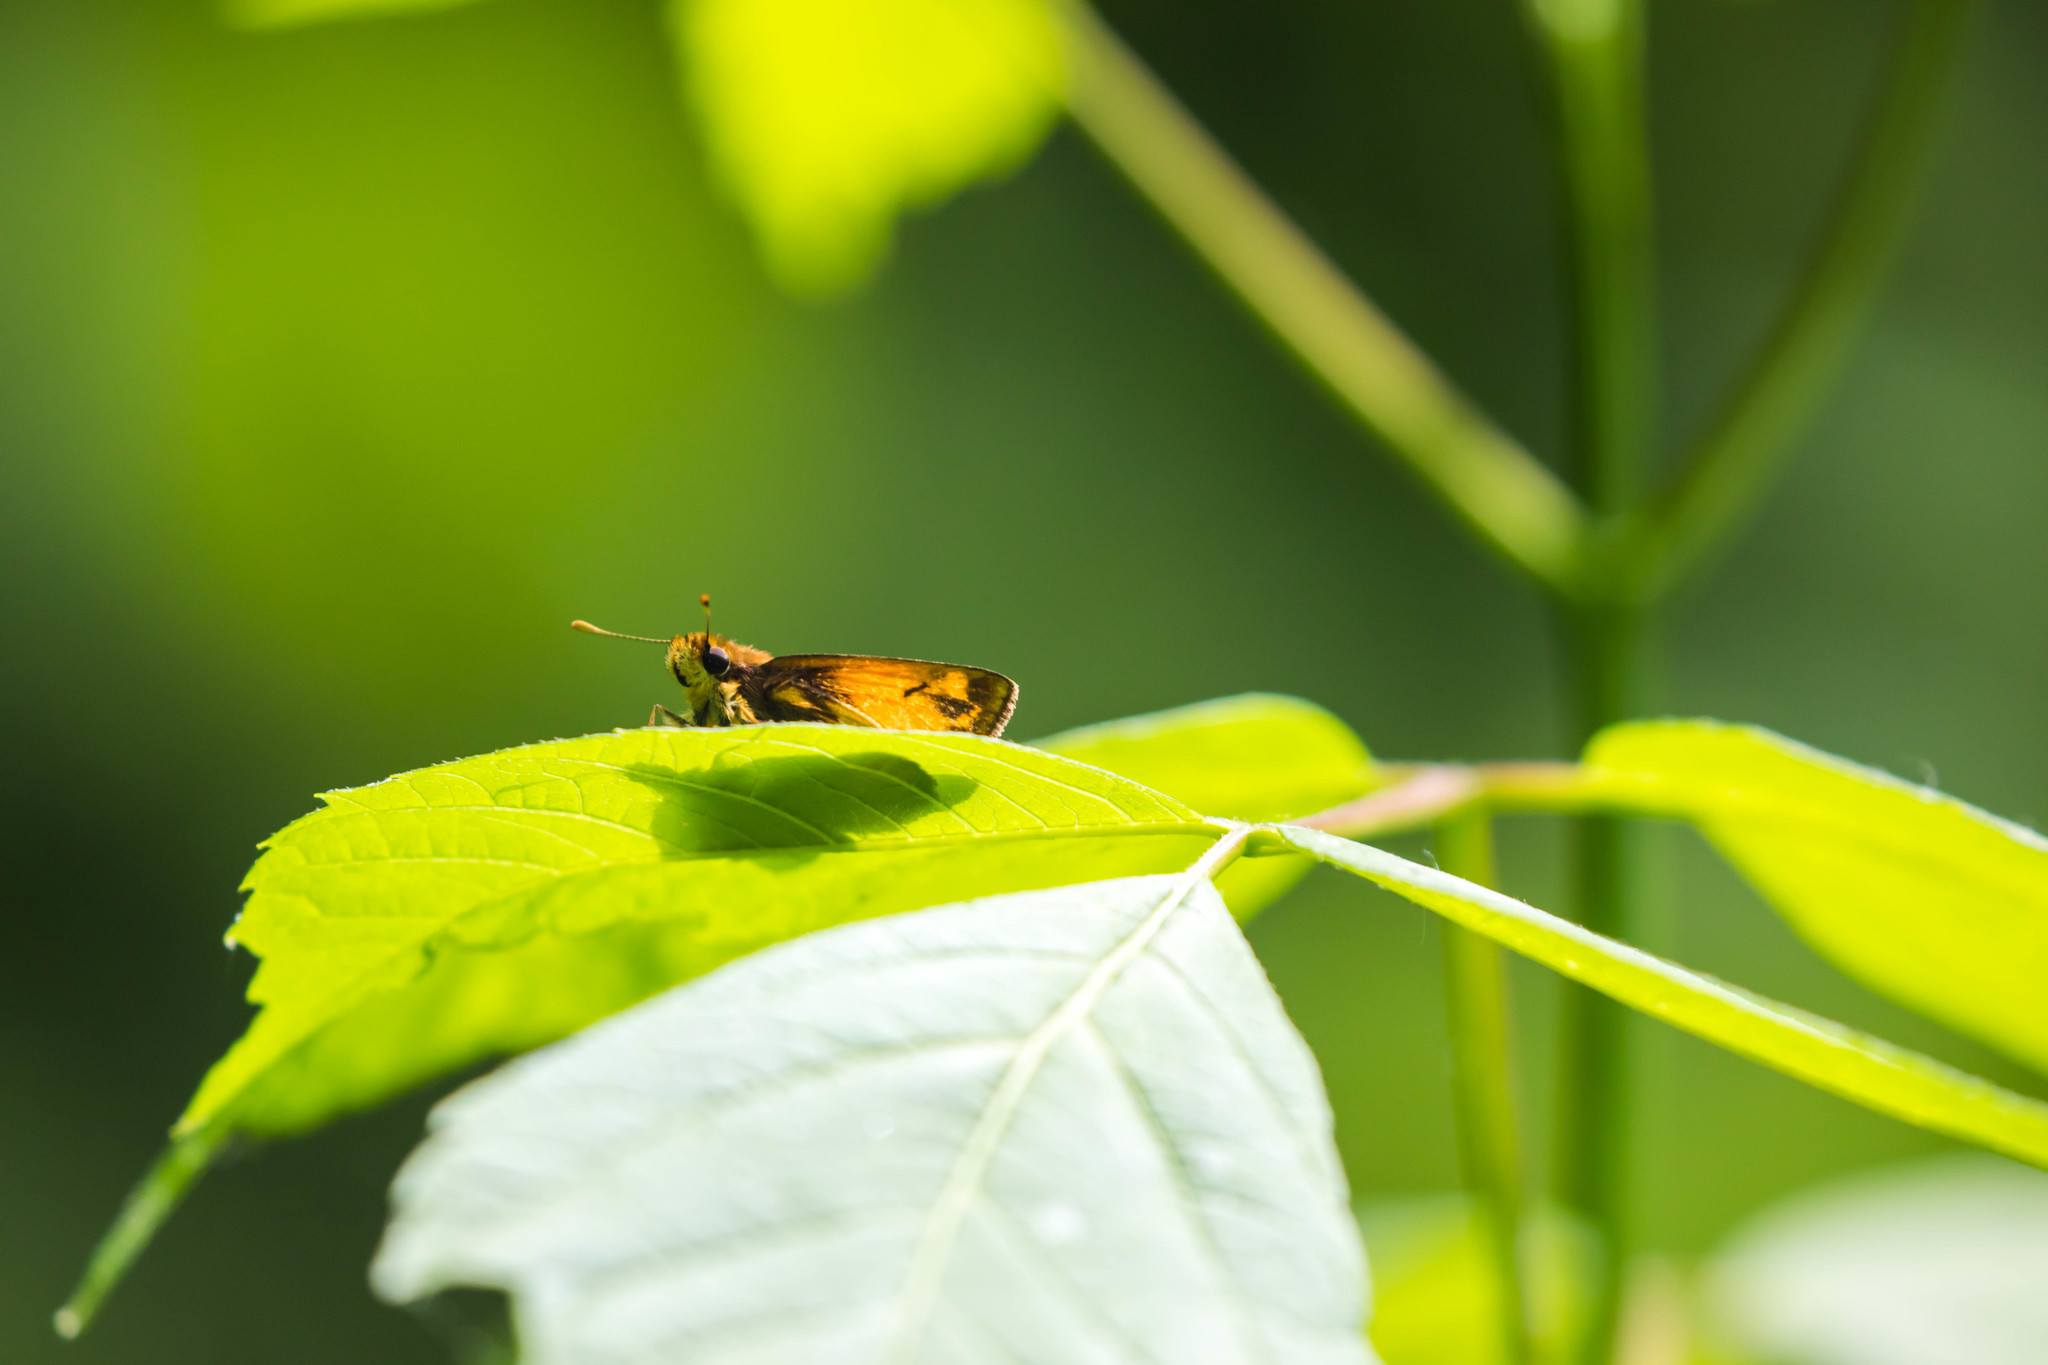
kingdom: Animalia
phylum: Arthropoda
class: Insecta
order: Lepidoptera
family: Hesperiidae
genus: Lon
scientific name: Lon zabulon
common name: Zabulon skipper
